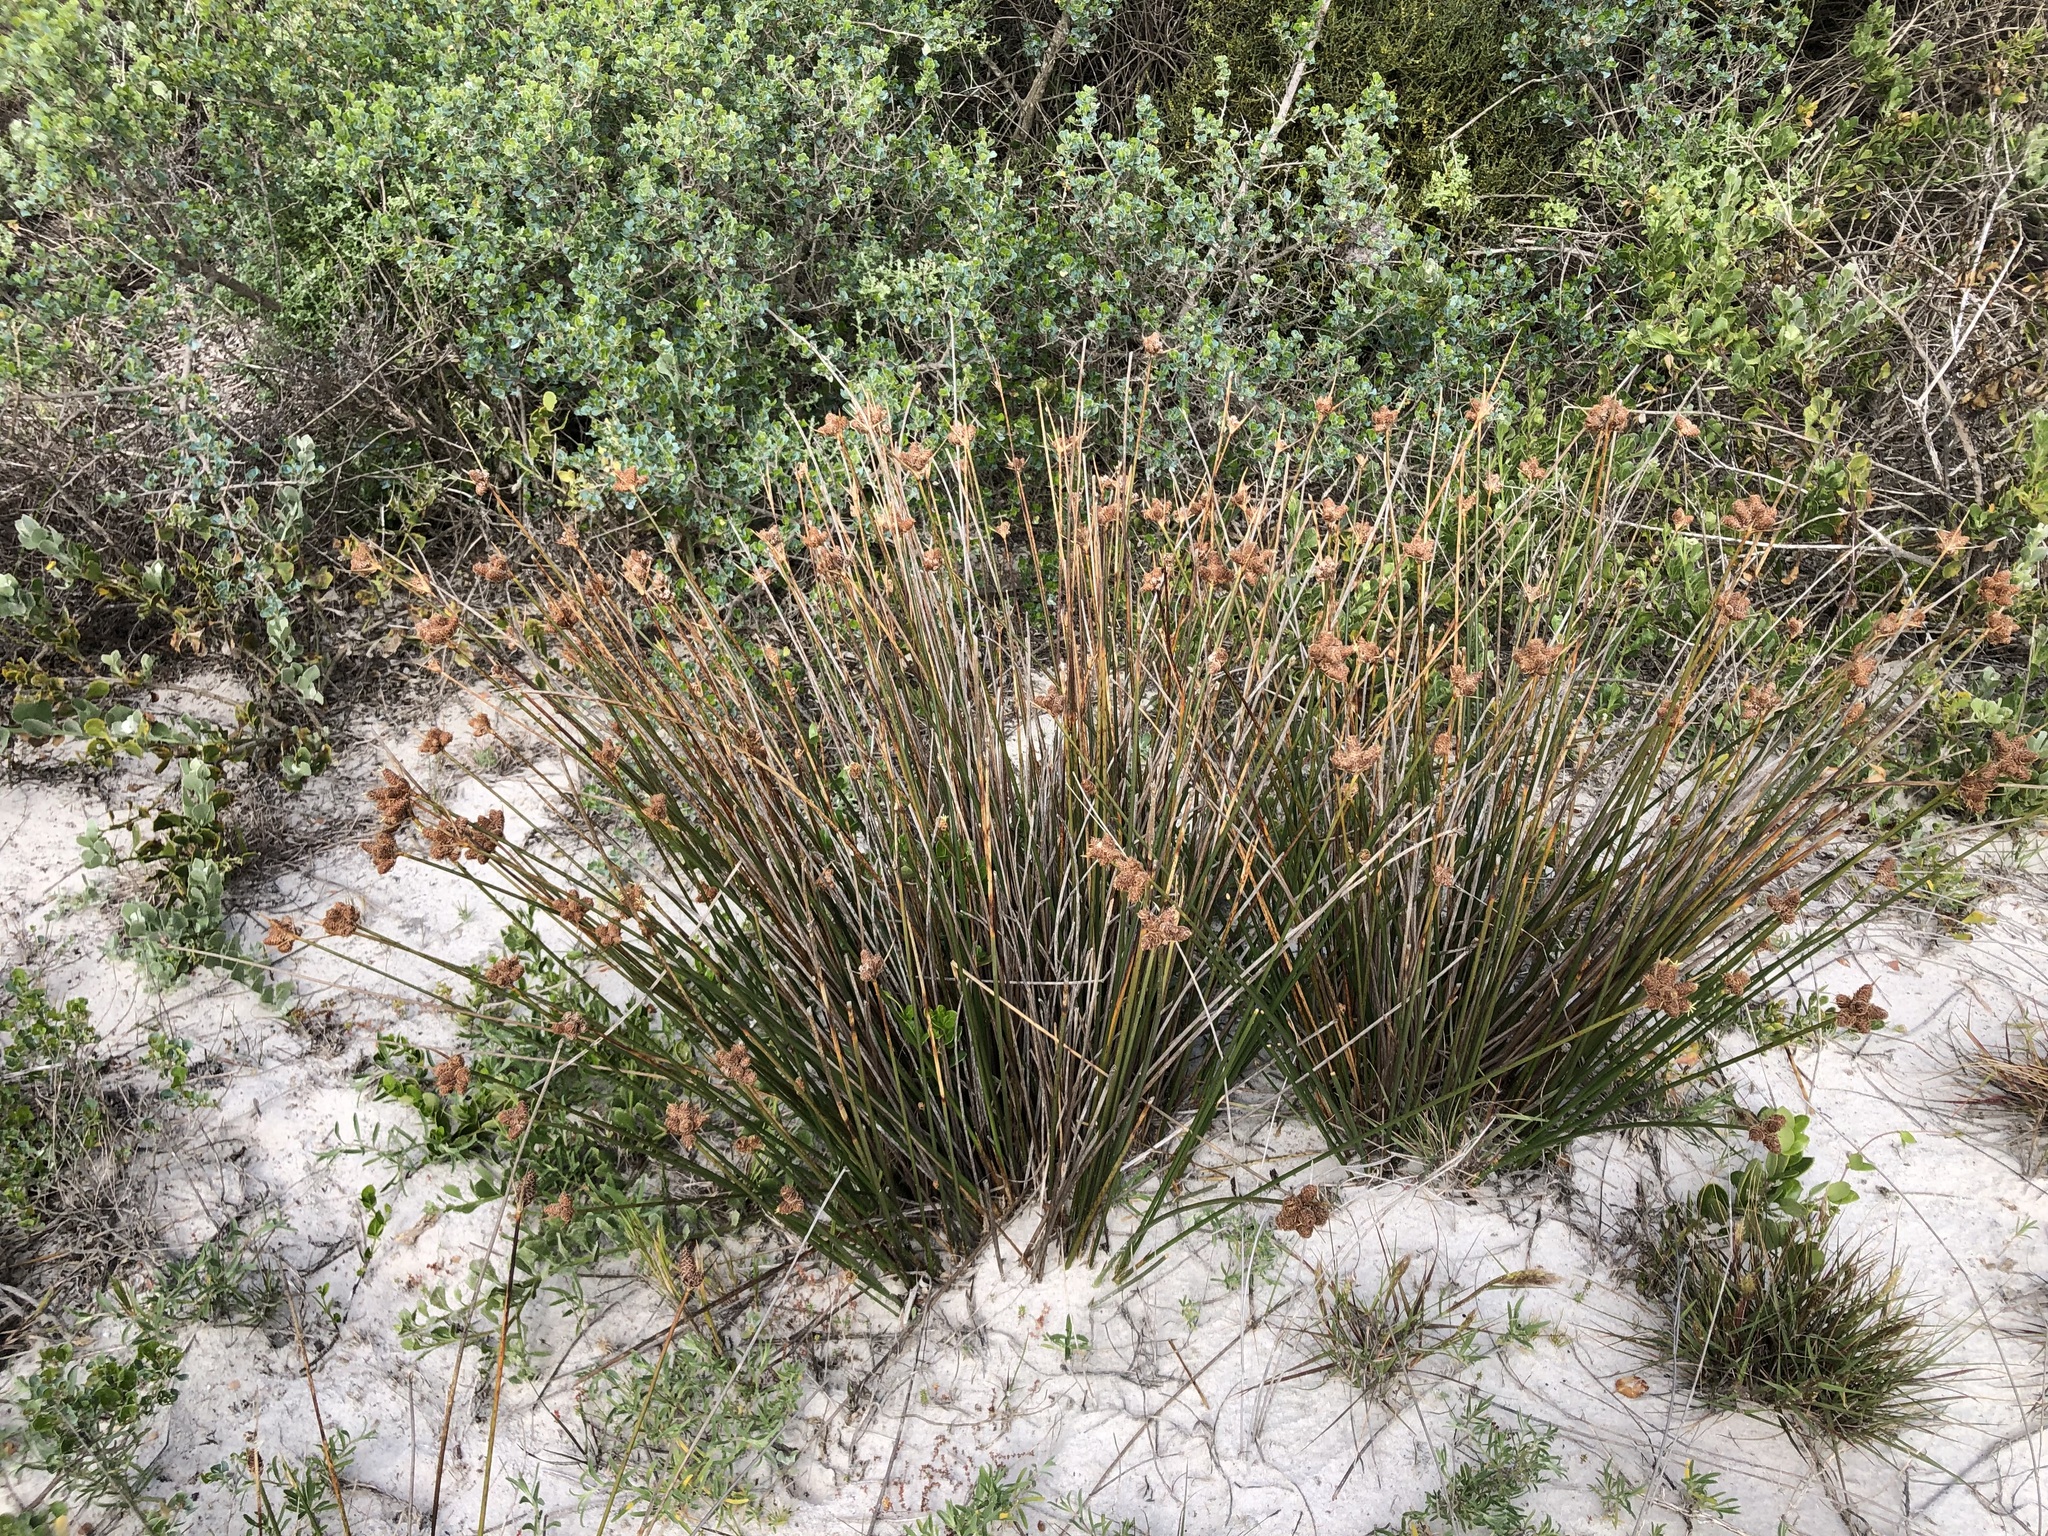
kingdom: Plantae
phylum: Tracheophyta
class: Liliopsida
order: Poales
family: Cyperaceae
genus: Hellmuthia
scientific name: Hellmuthia membranacea
